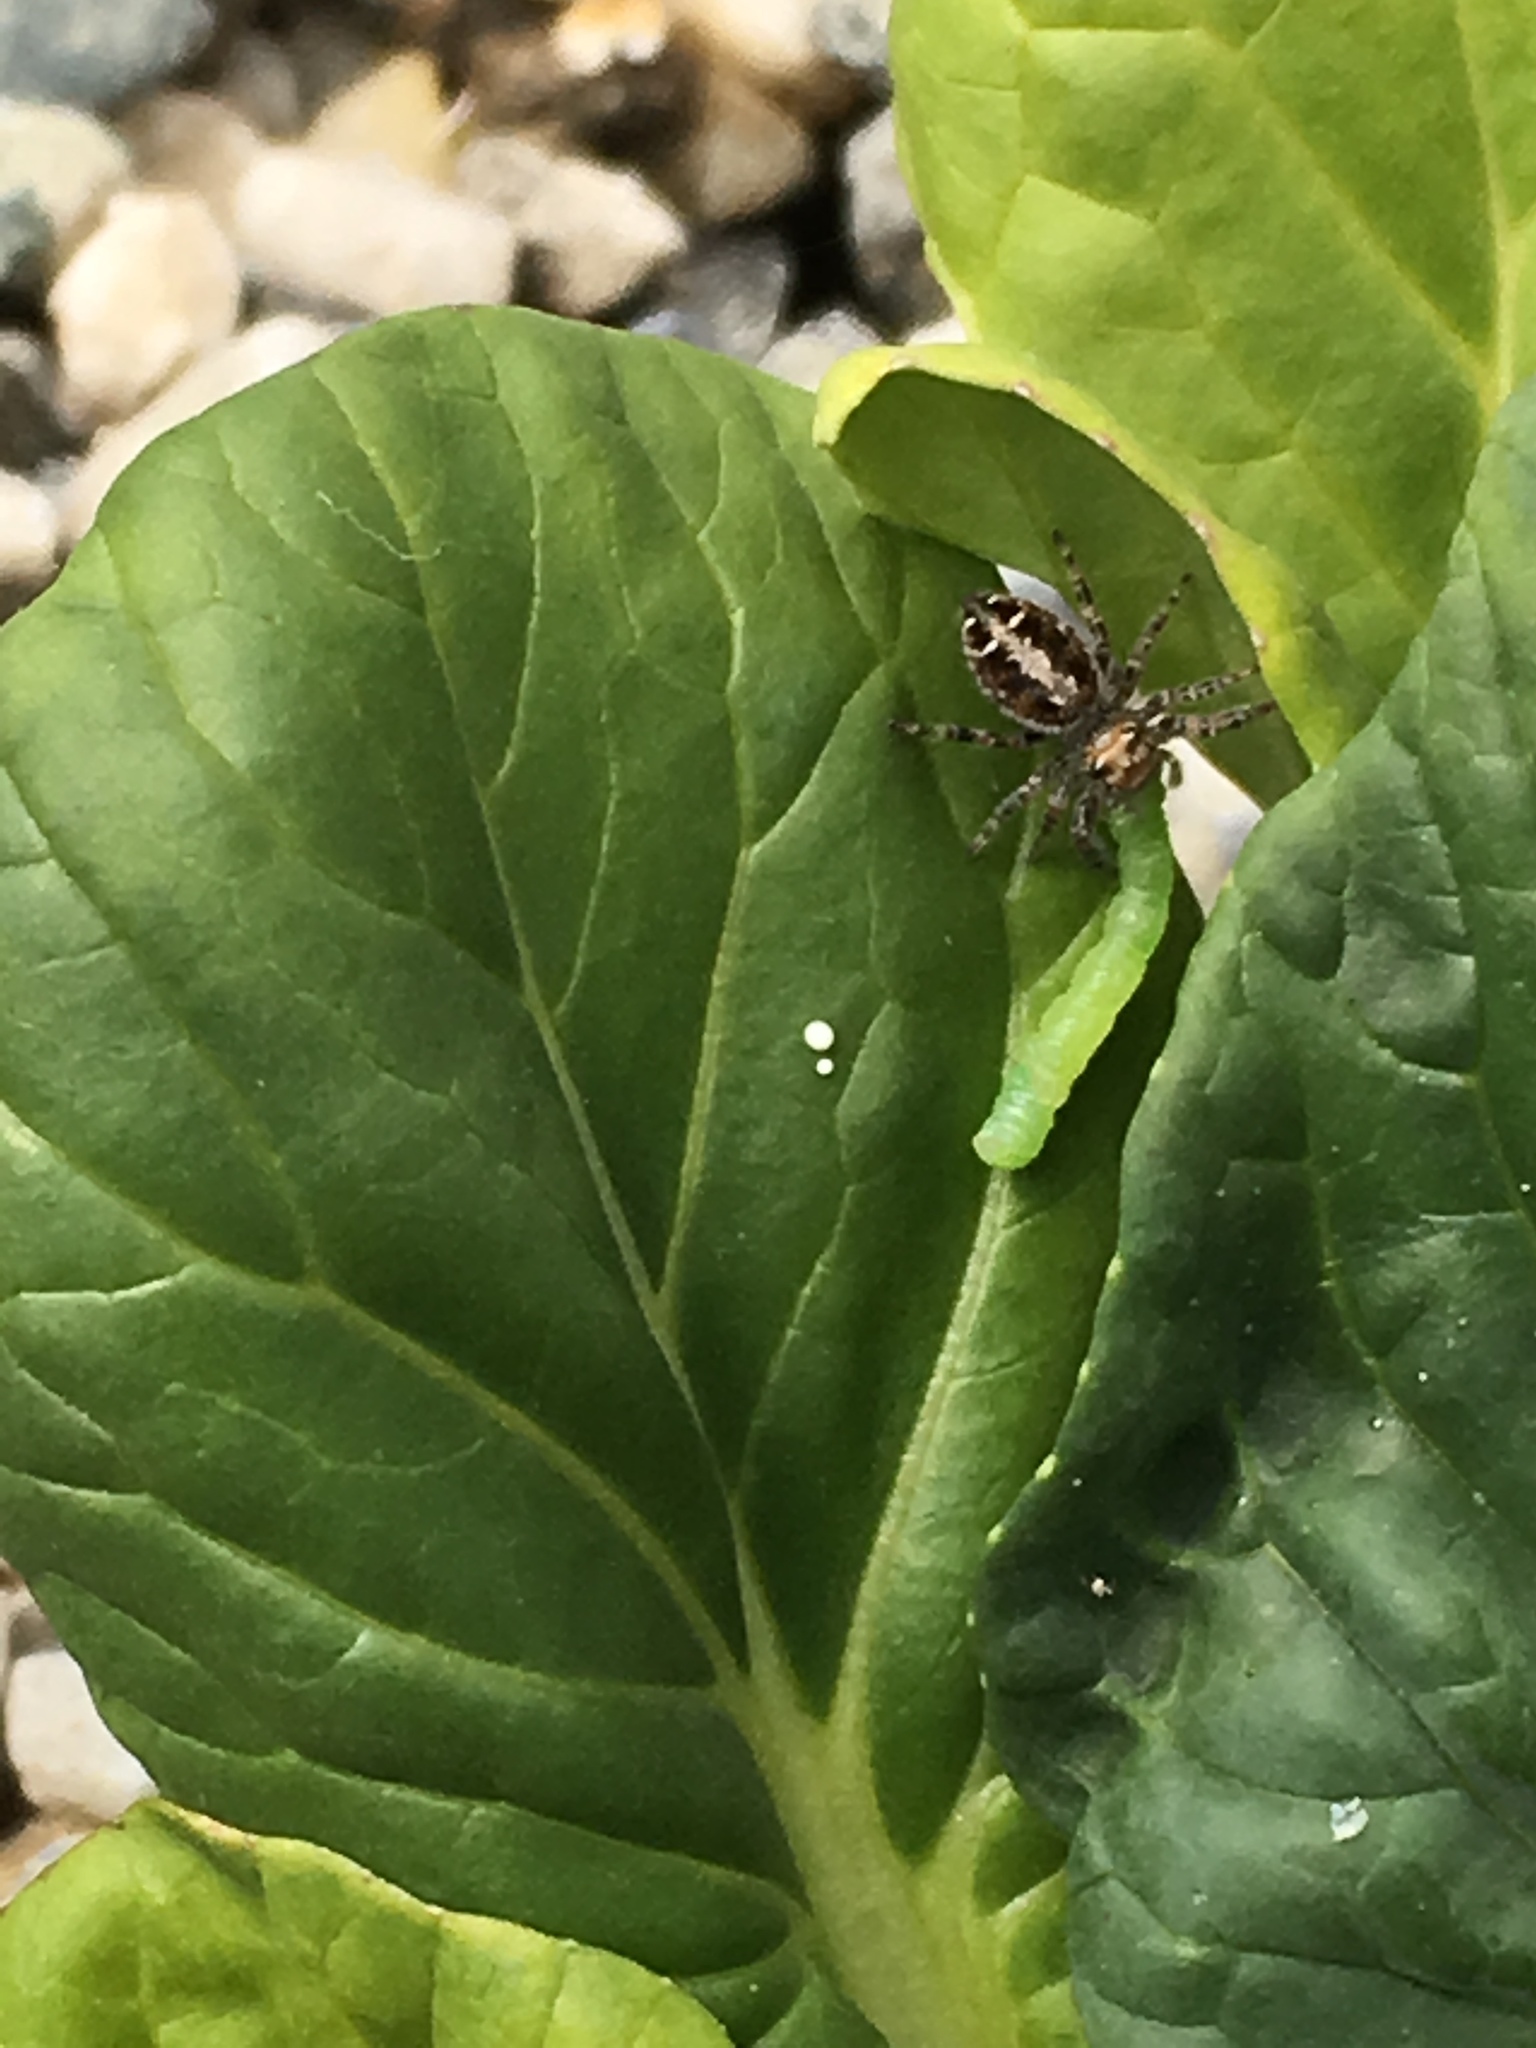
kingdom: Animalia
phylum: Arthropoda
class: Arachnida
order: Araneae
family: Salticidae
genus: Phidippus
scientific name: Phidippus comatus
